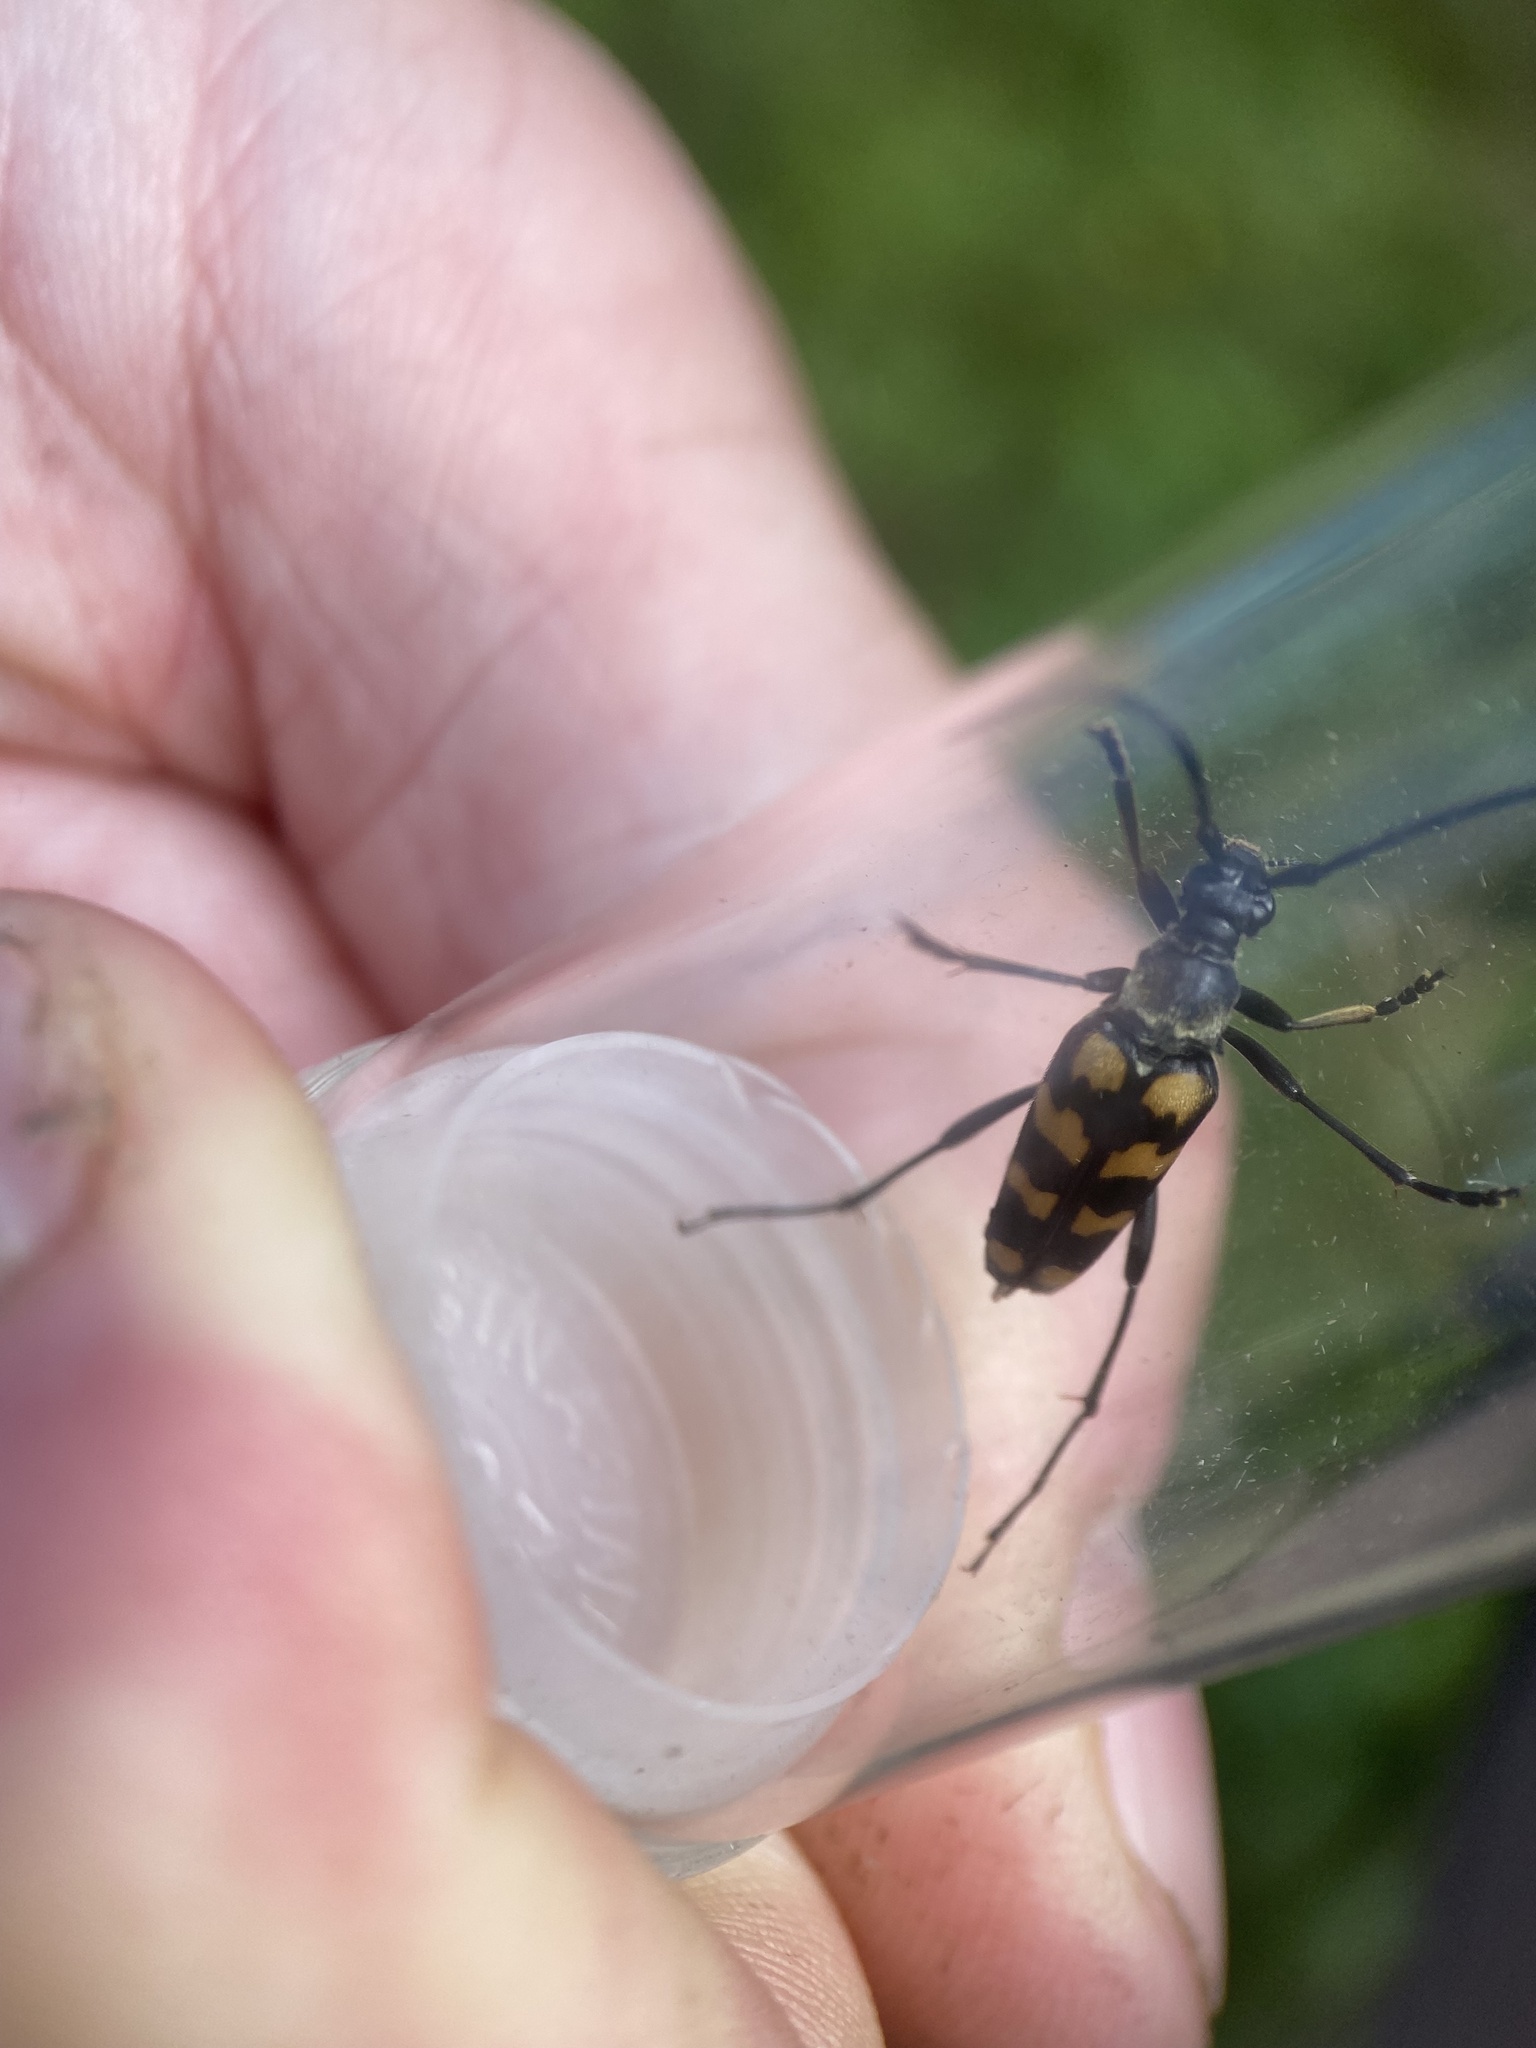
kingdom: Animalia
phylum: Arthropoda
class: Insecta
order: Coleoptera
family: Cerambycidae
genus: Leptura
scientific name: Leptura quadrifasciata
